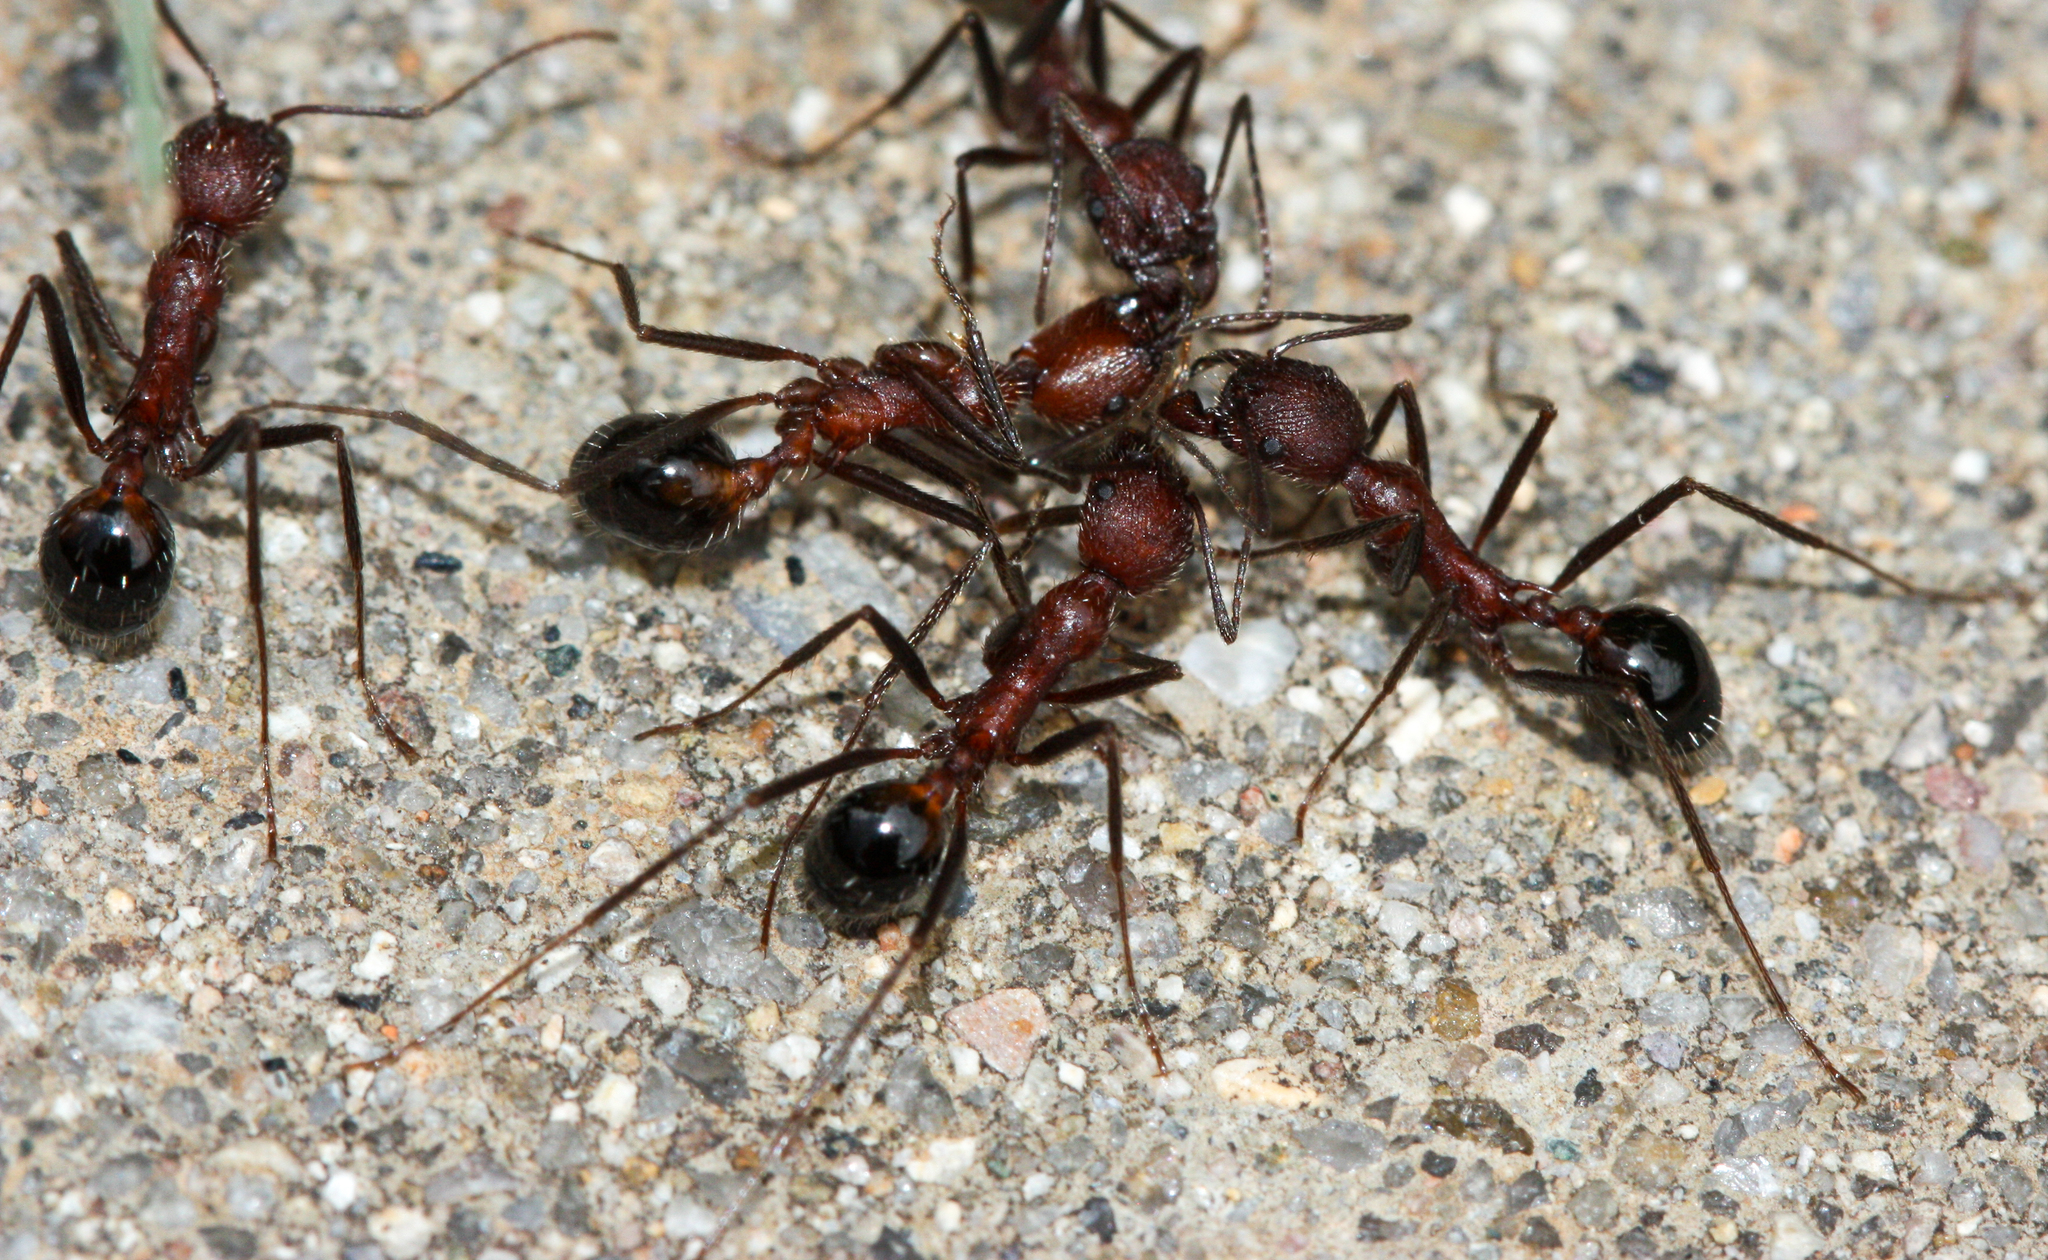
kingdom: Animalia
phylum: Arthropoda
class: Insecta
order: Hymenoptera
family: Formicidae
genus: Novomessor
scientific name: Novomessor albisetosa
